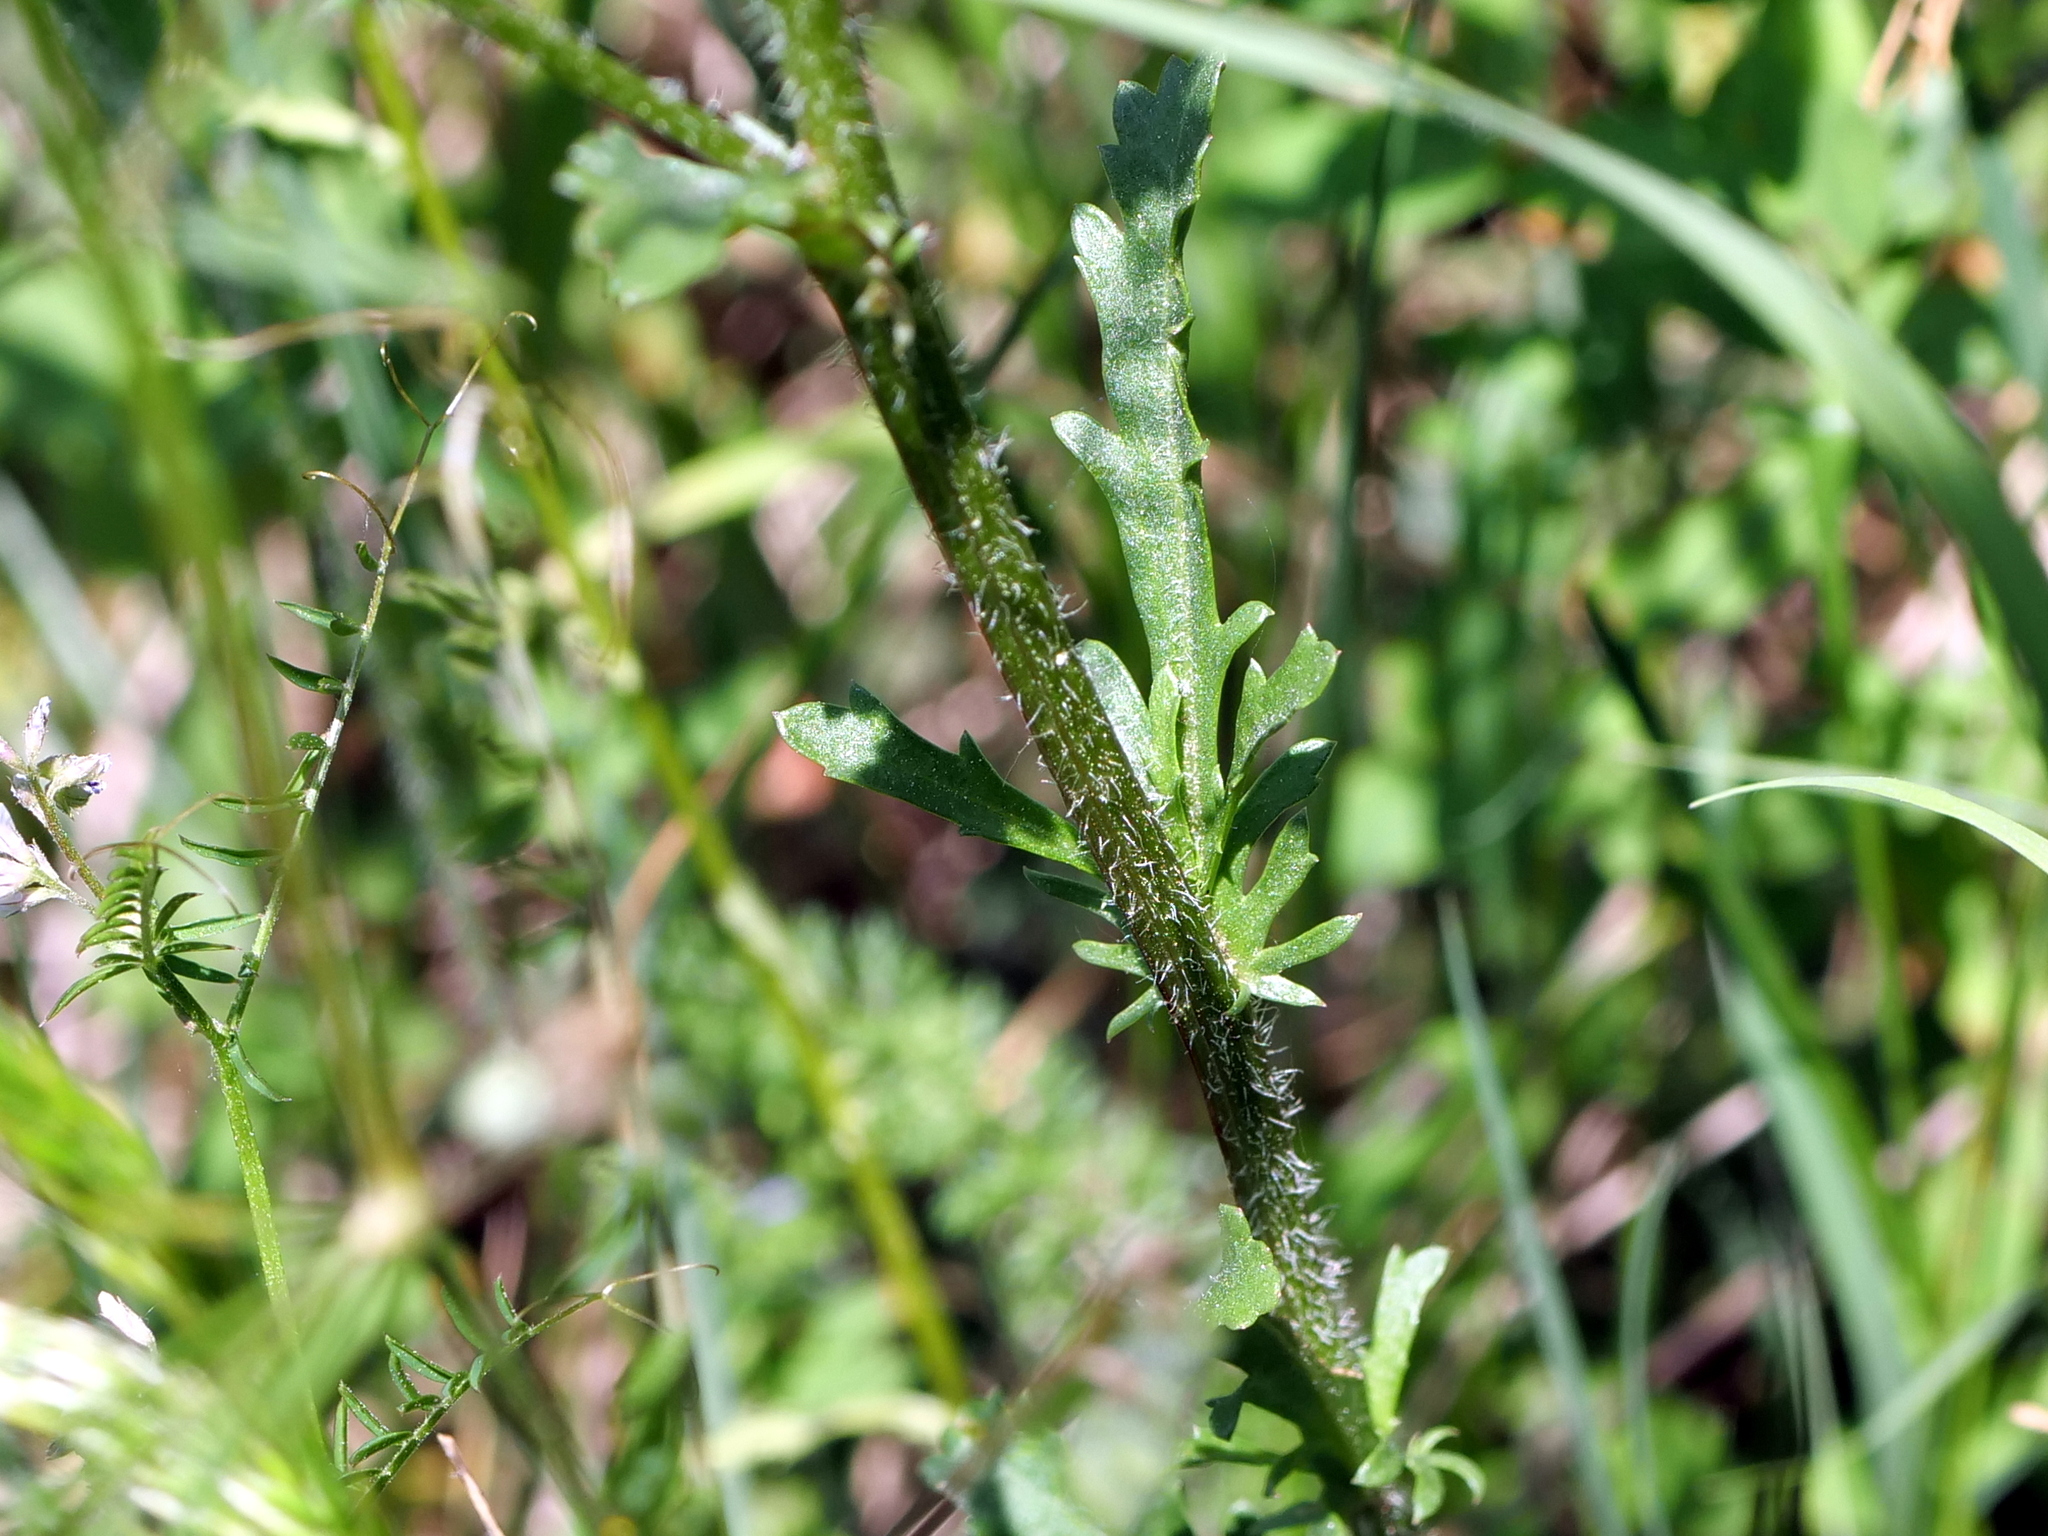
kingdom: Plantae
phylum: Tracheophyta
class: Magnoliopsida
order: Asterales
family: Asteraceae
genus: Leucanthemum
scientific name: Leucanthemum vulgare
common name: Oxeye daisy
